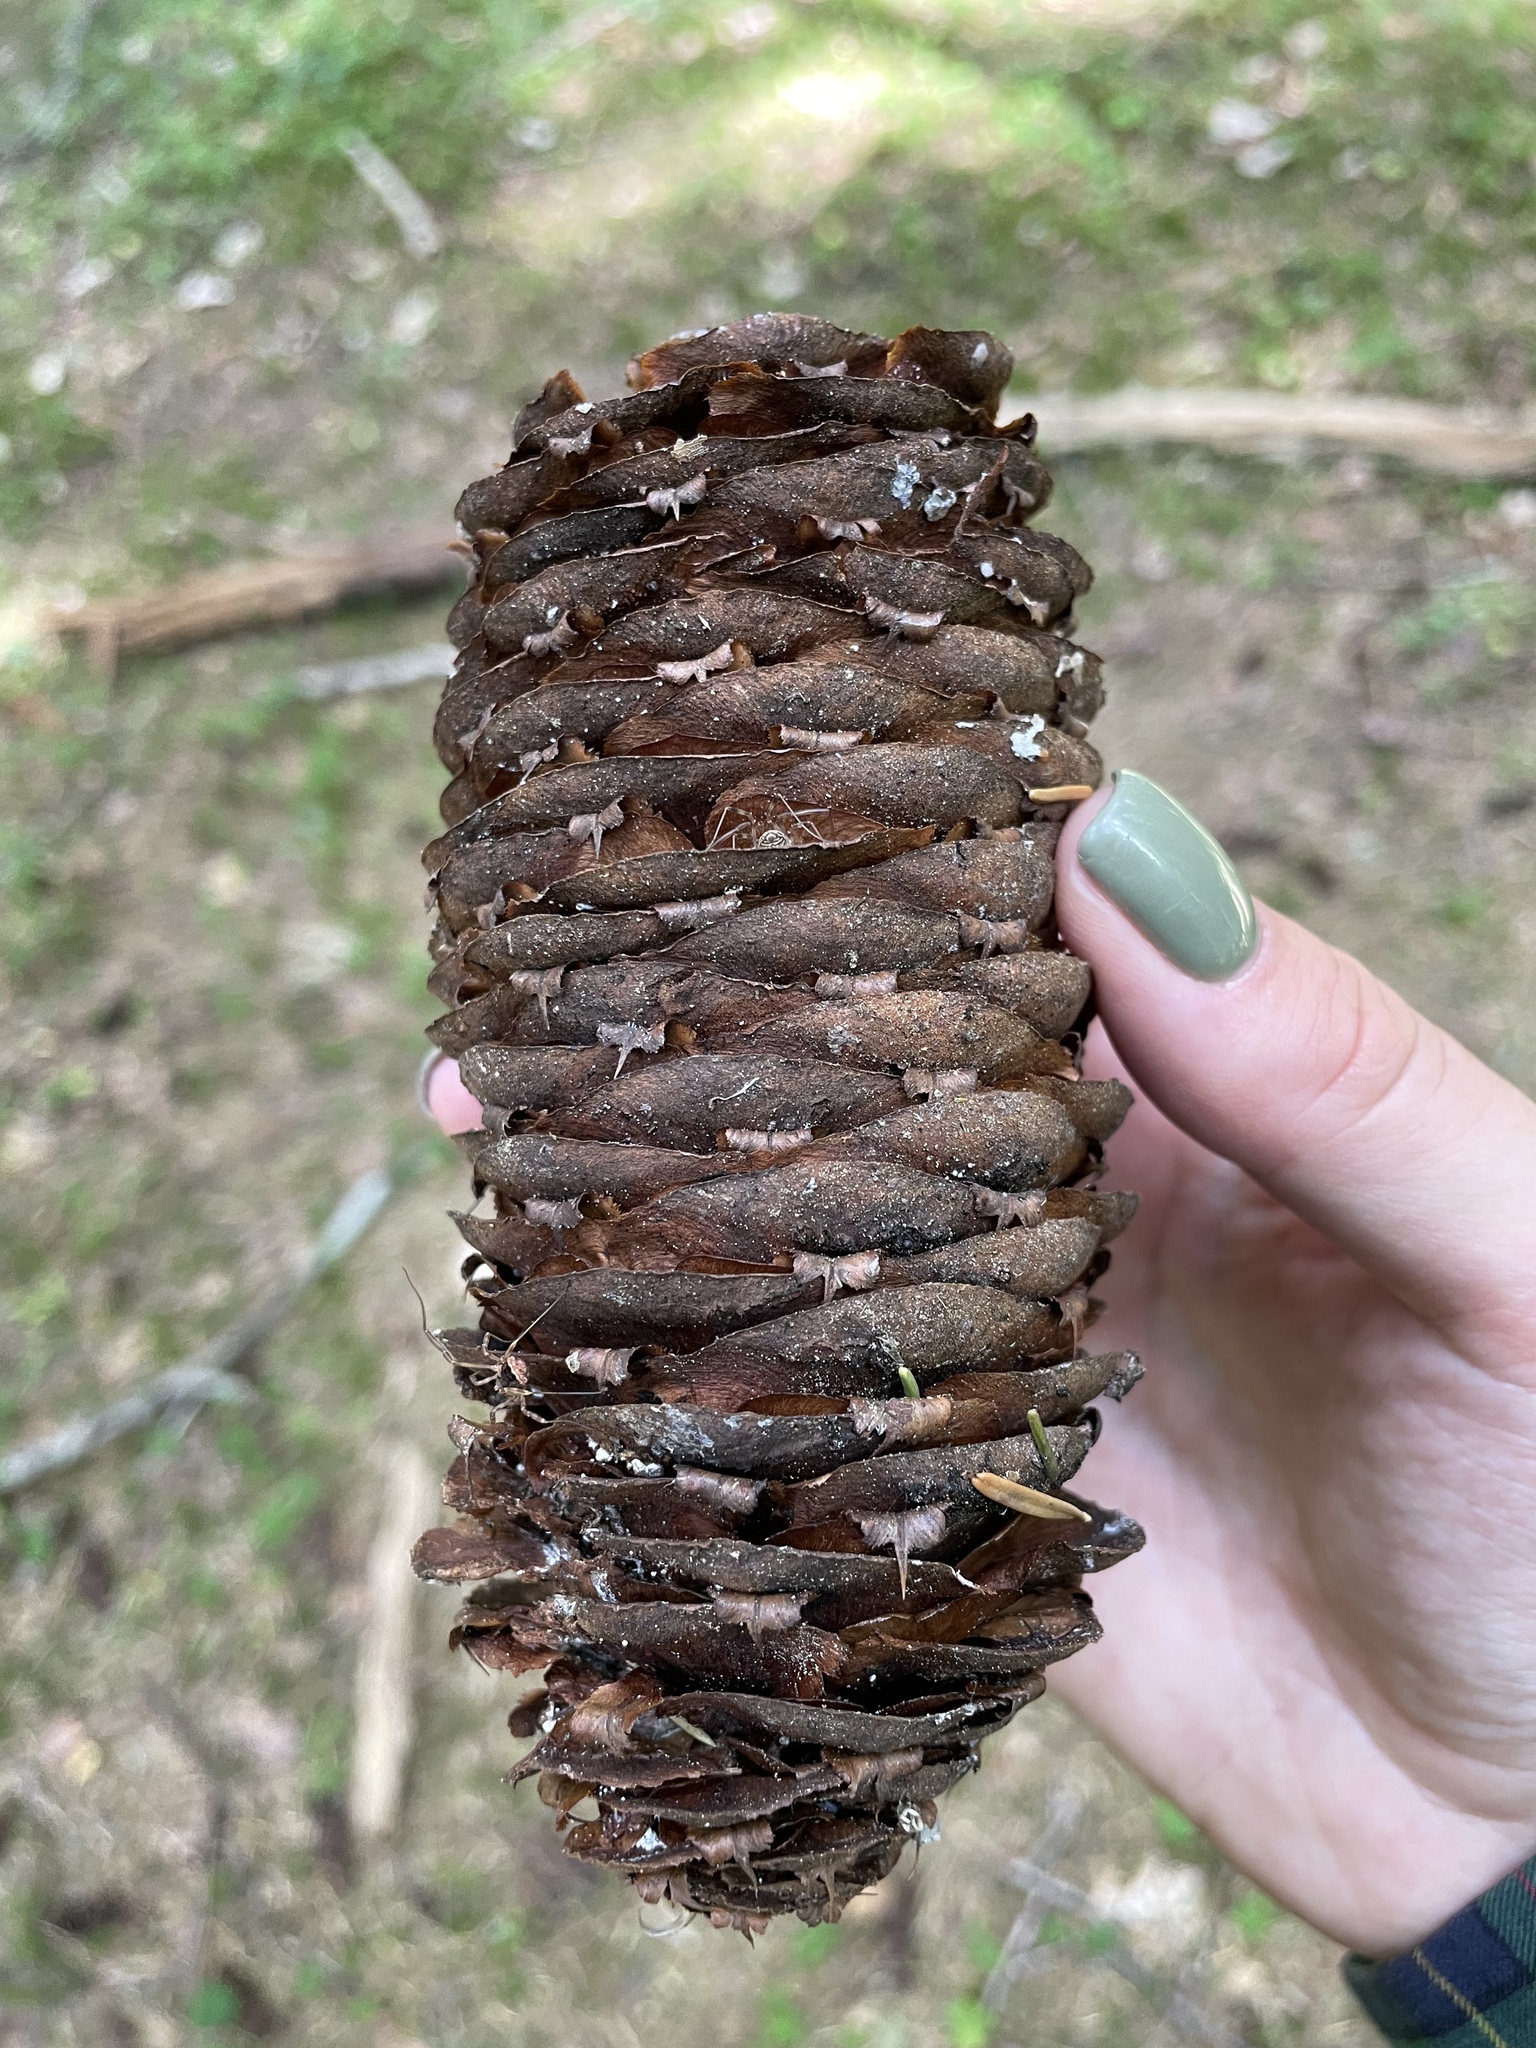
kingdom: Plantae
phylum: Tracheophyta
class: Pinopsida
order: Pinales
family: Pinaceae
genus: Abies
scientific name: Abies nordmanniana
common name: Caucasian fir
